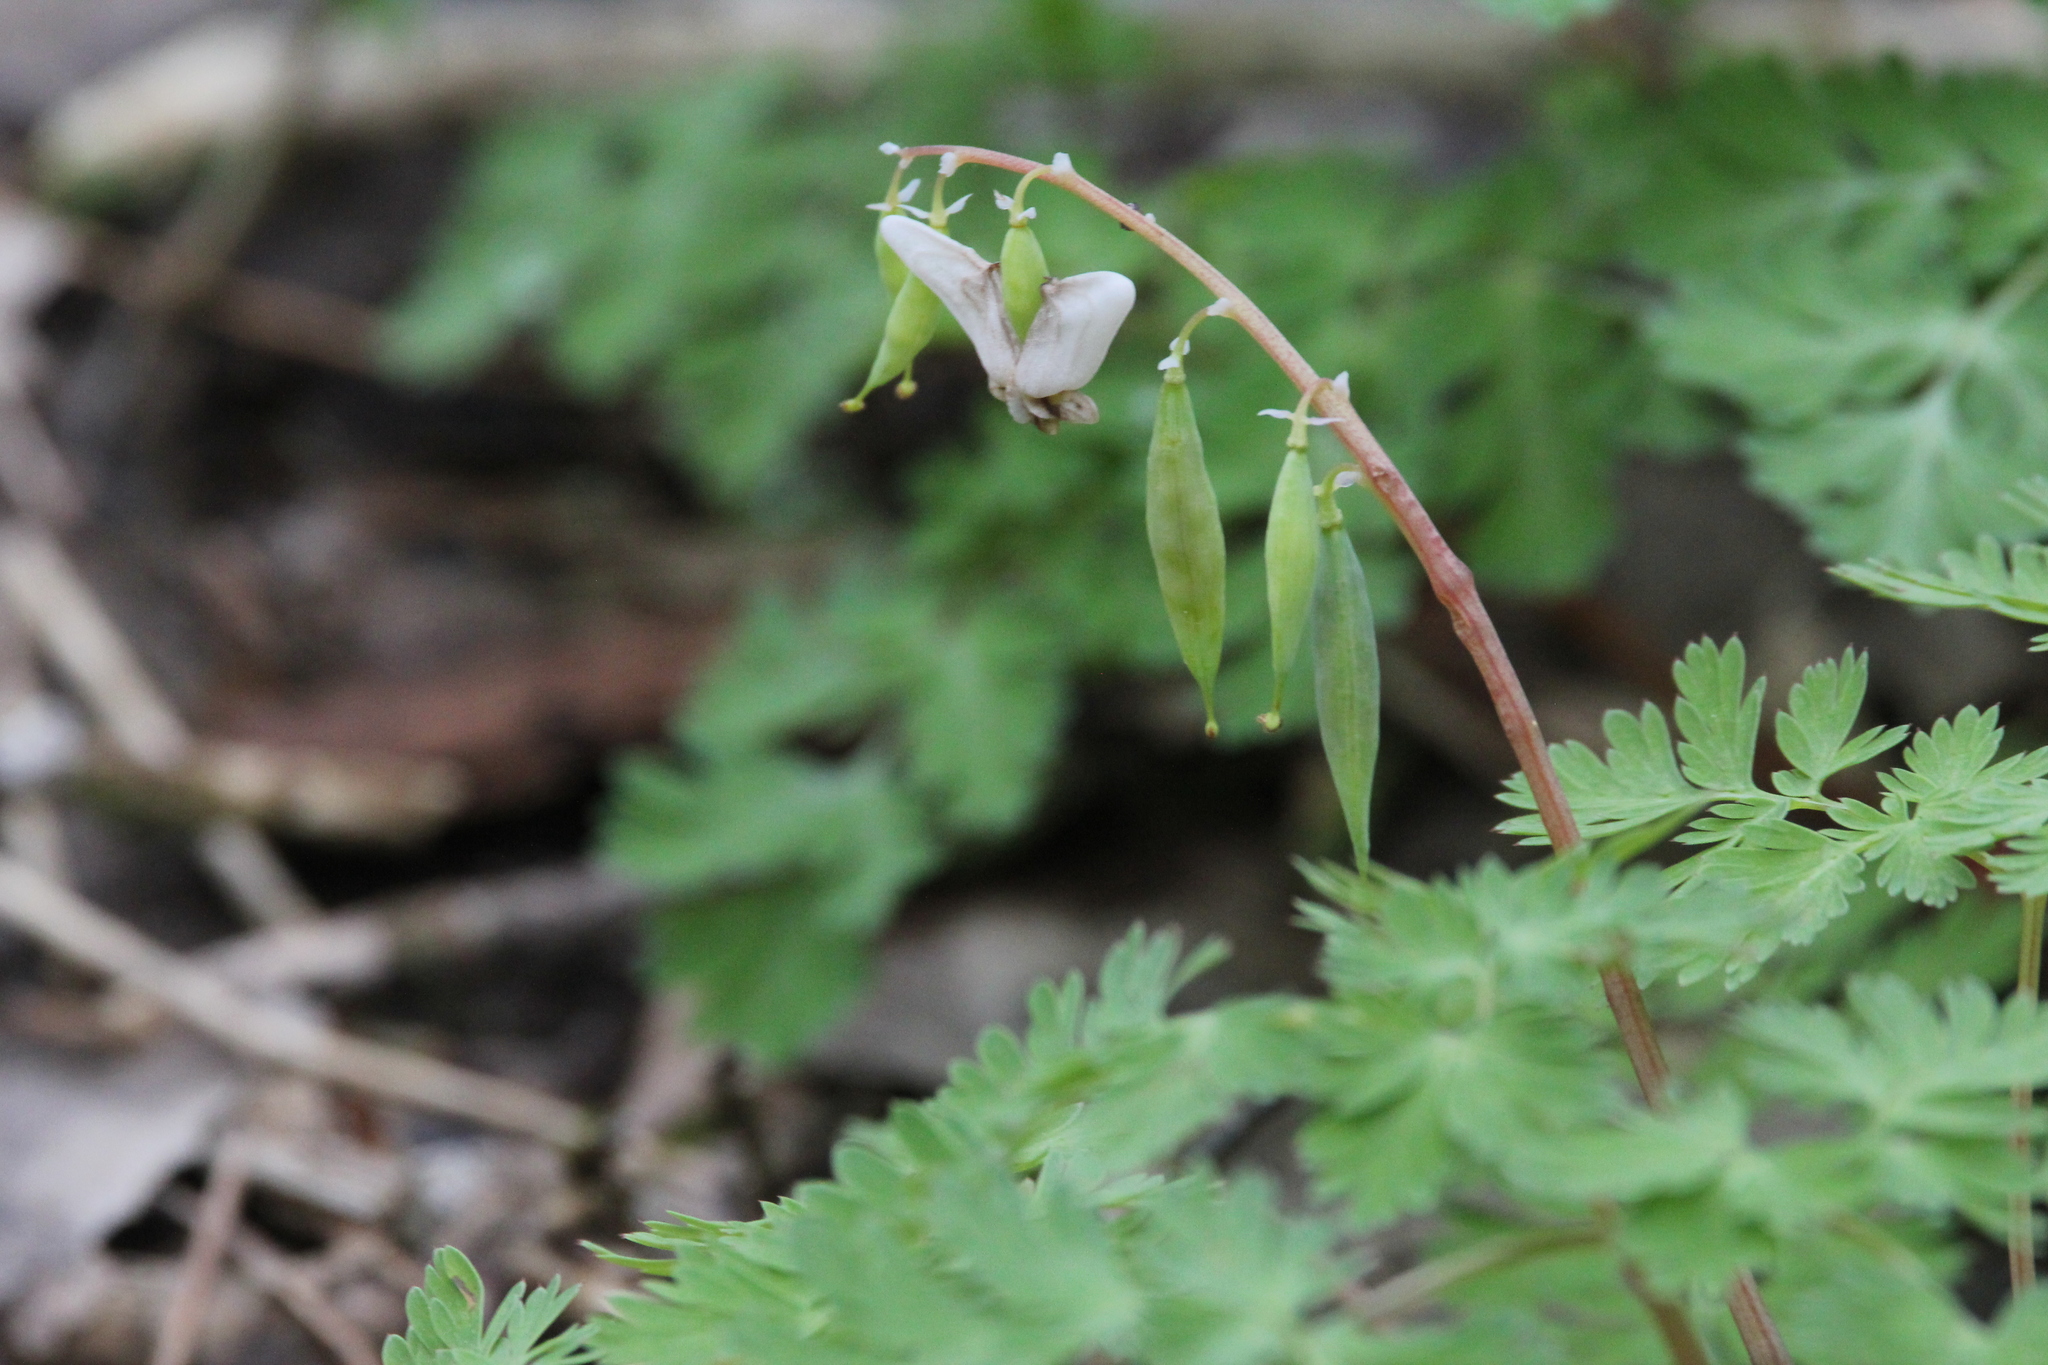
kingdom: Plantae
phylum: Tracheophyta
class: Magnoliopsida
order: Ranunculales
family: Papaveraceae
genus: Dicentra
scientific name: Dicentra cucullaria
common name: Dutchman's breeches
